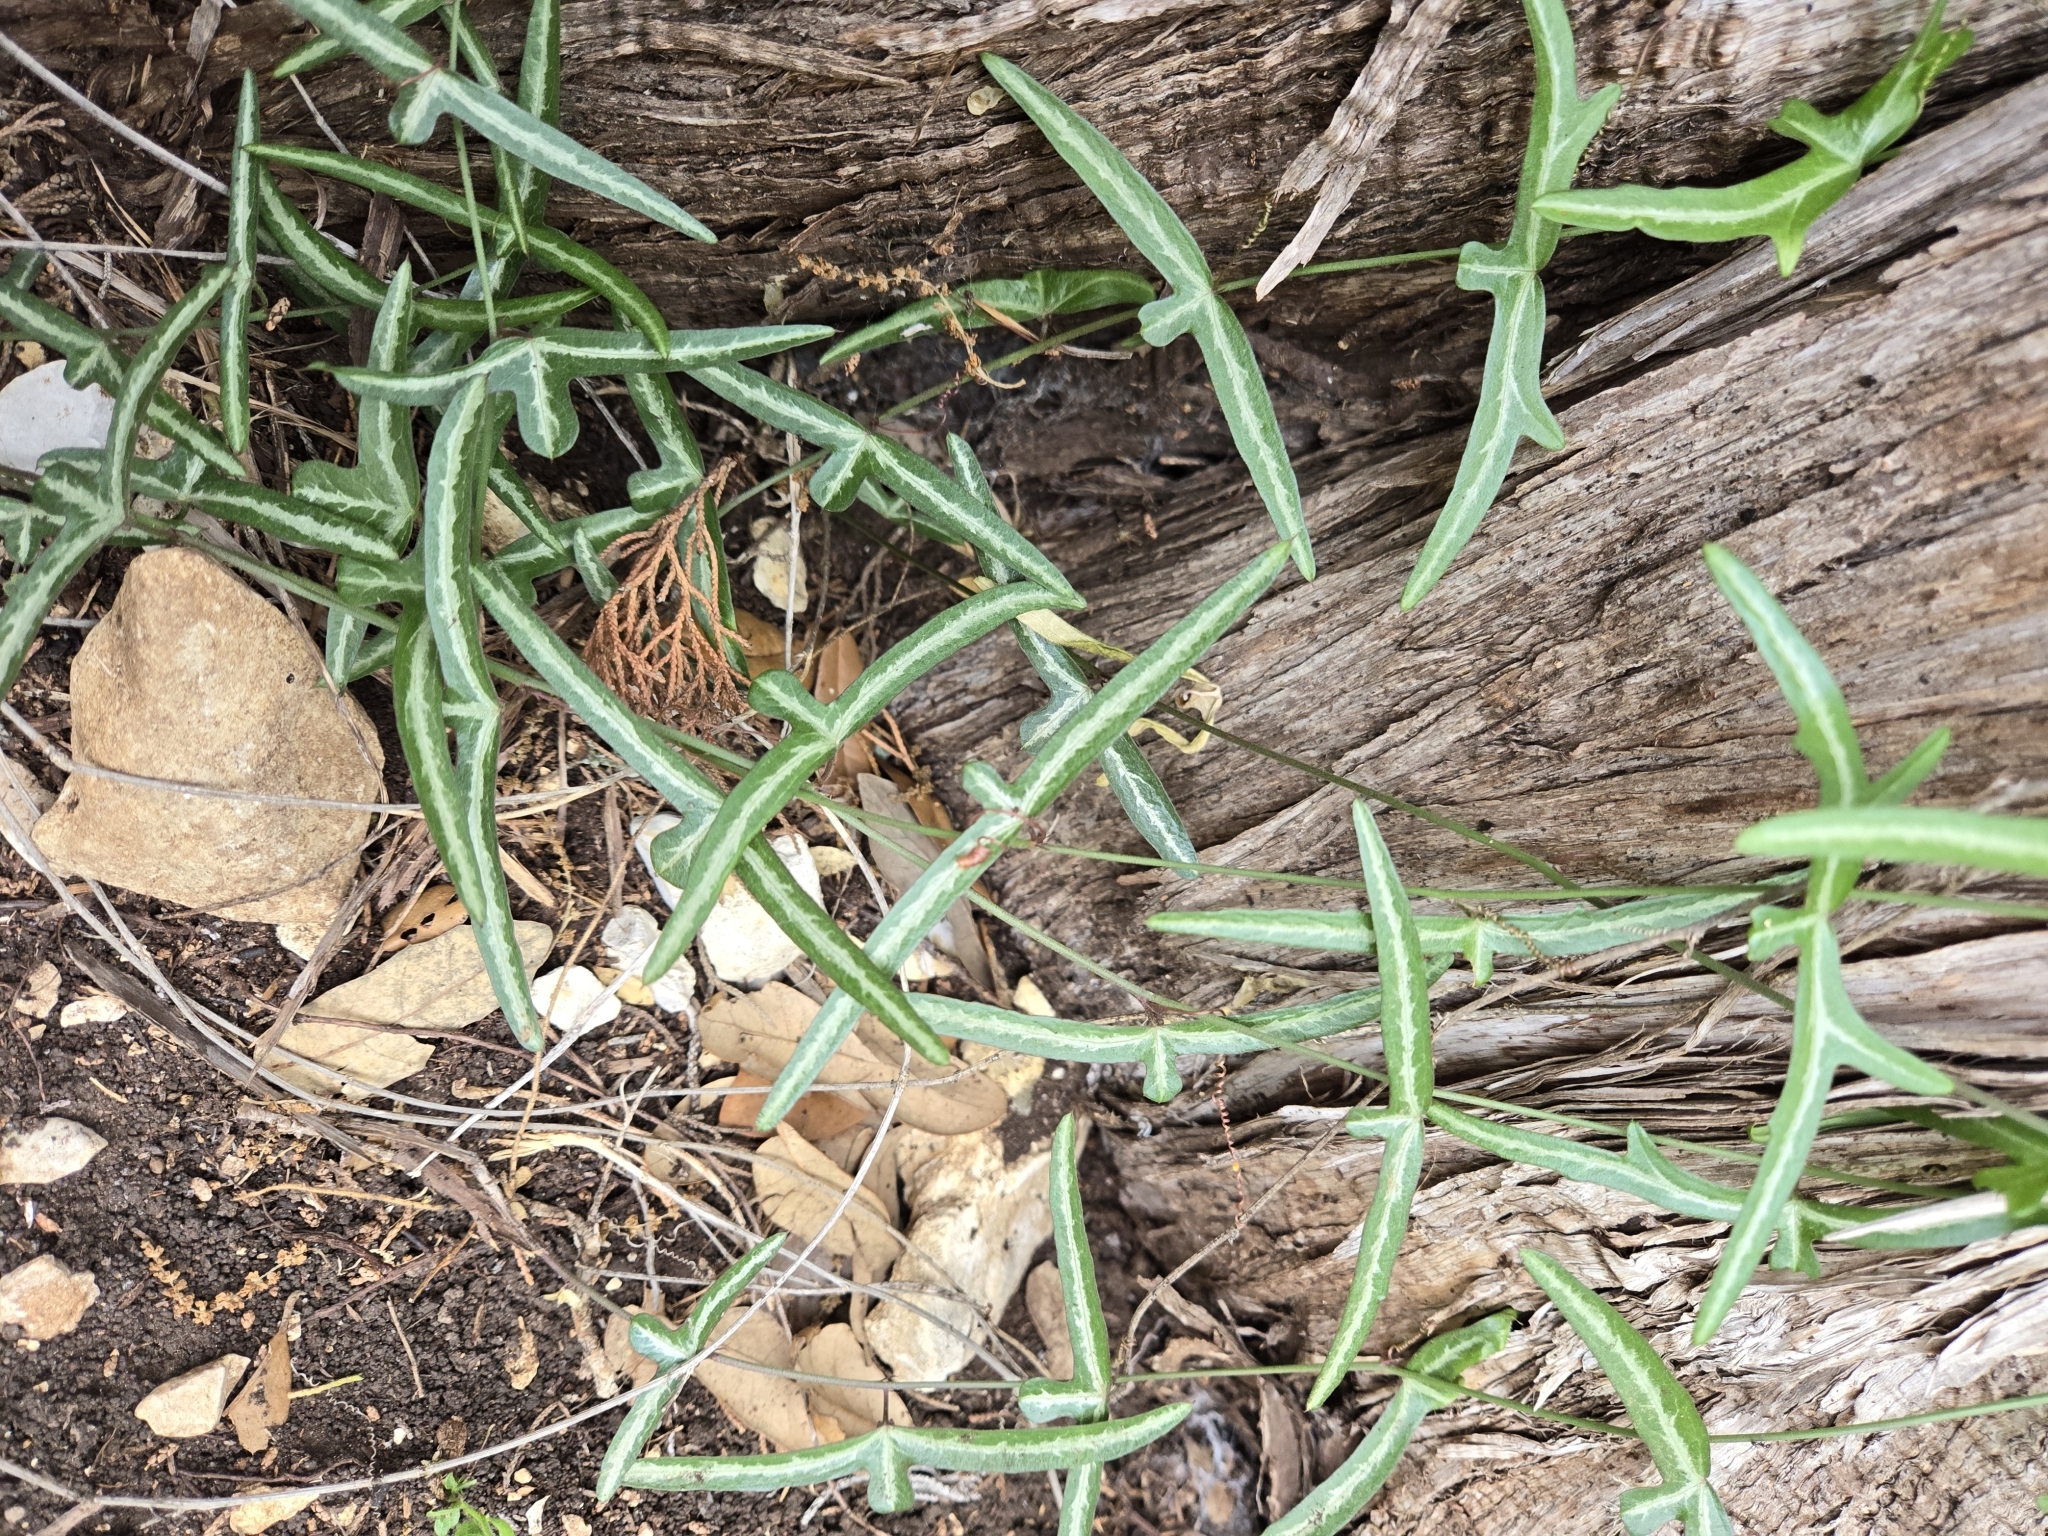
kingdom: Plantae
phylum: Tracheophyta
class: Magnoliopsida
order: Malpighiales
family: Passifloraceae
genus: Passiflora
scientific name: Passiflora tenuiloba
